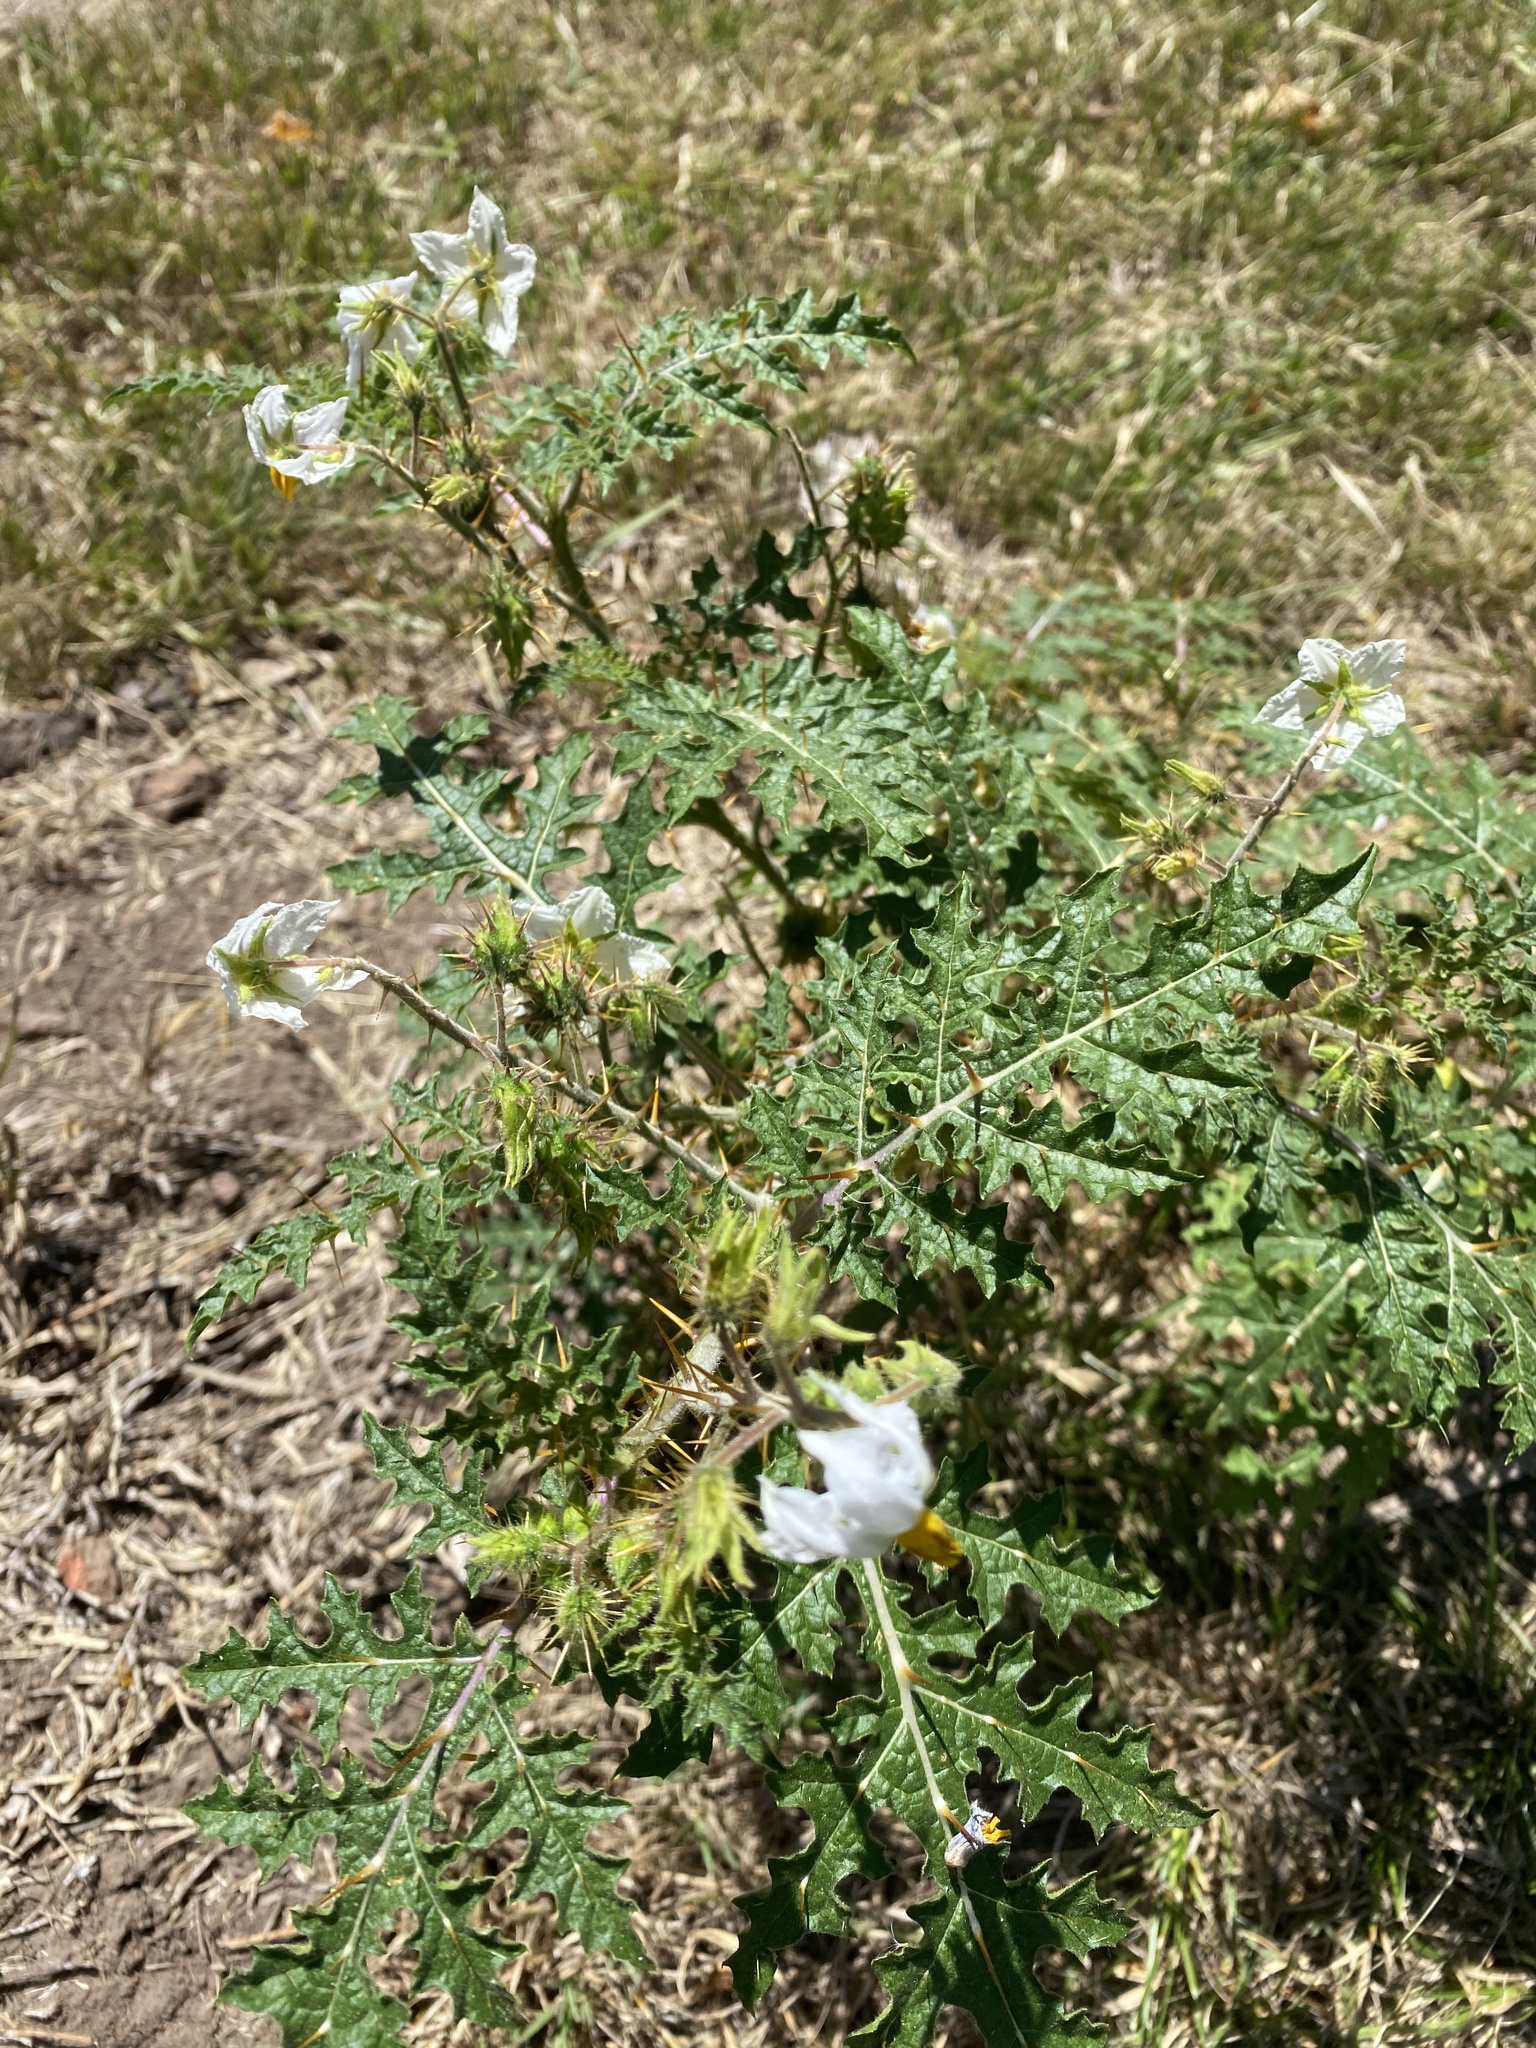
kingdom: Plantae
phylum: Tracheophyta
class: Magnoliopsida
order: Solanales
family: Solanaceae
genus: Solanum
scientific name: Solanum sisymbriifolium
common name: Red buffalo-bur
